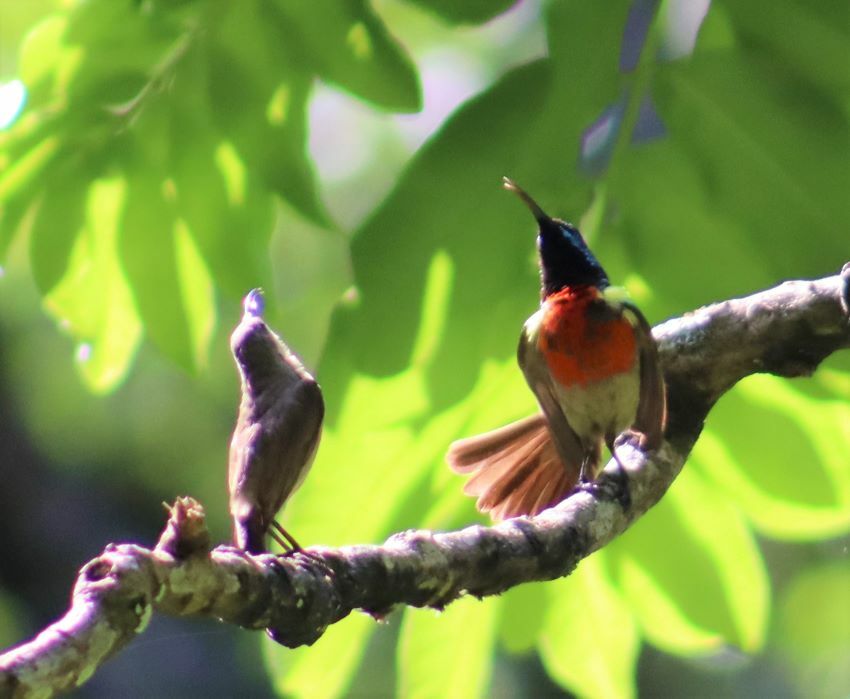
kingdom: Animalia
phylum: Chordata
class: Aves
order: Passeriformes
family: Nectariniidae
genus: Cinnyris
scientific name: Cinnyris afer
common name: Greater double-collared sunbird
